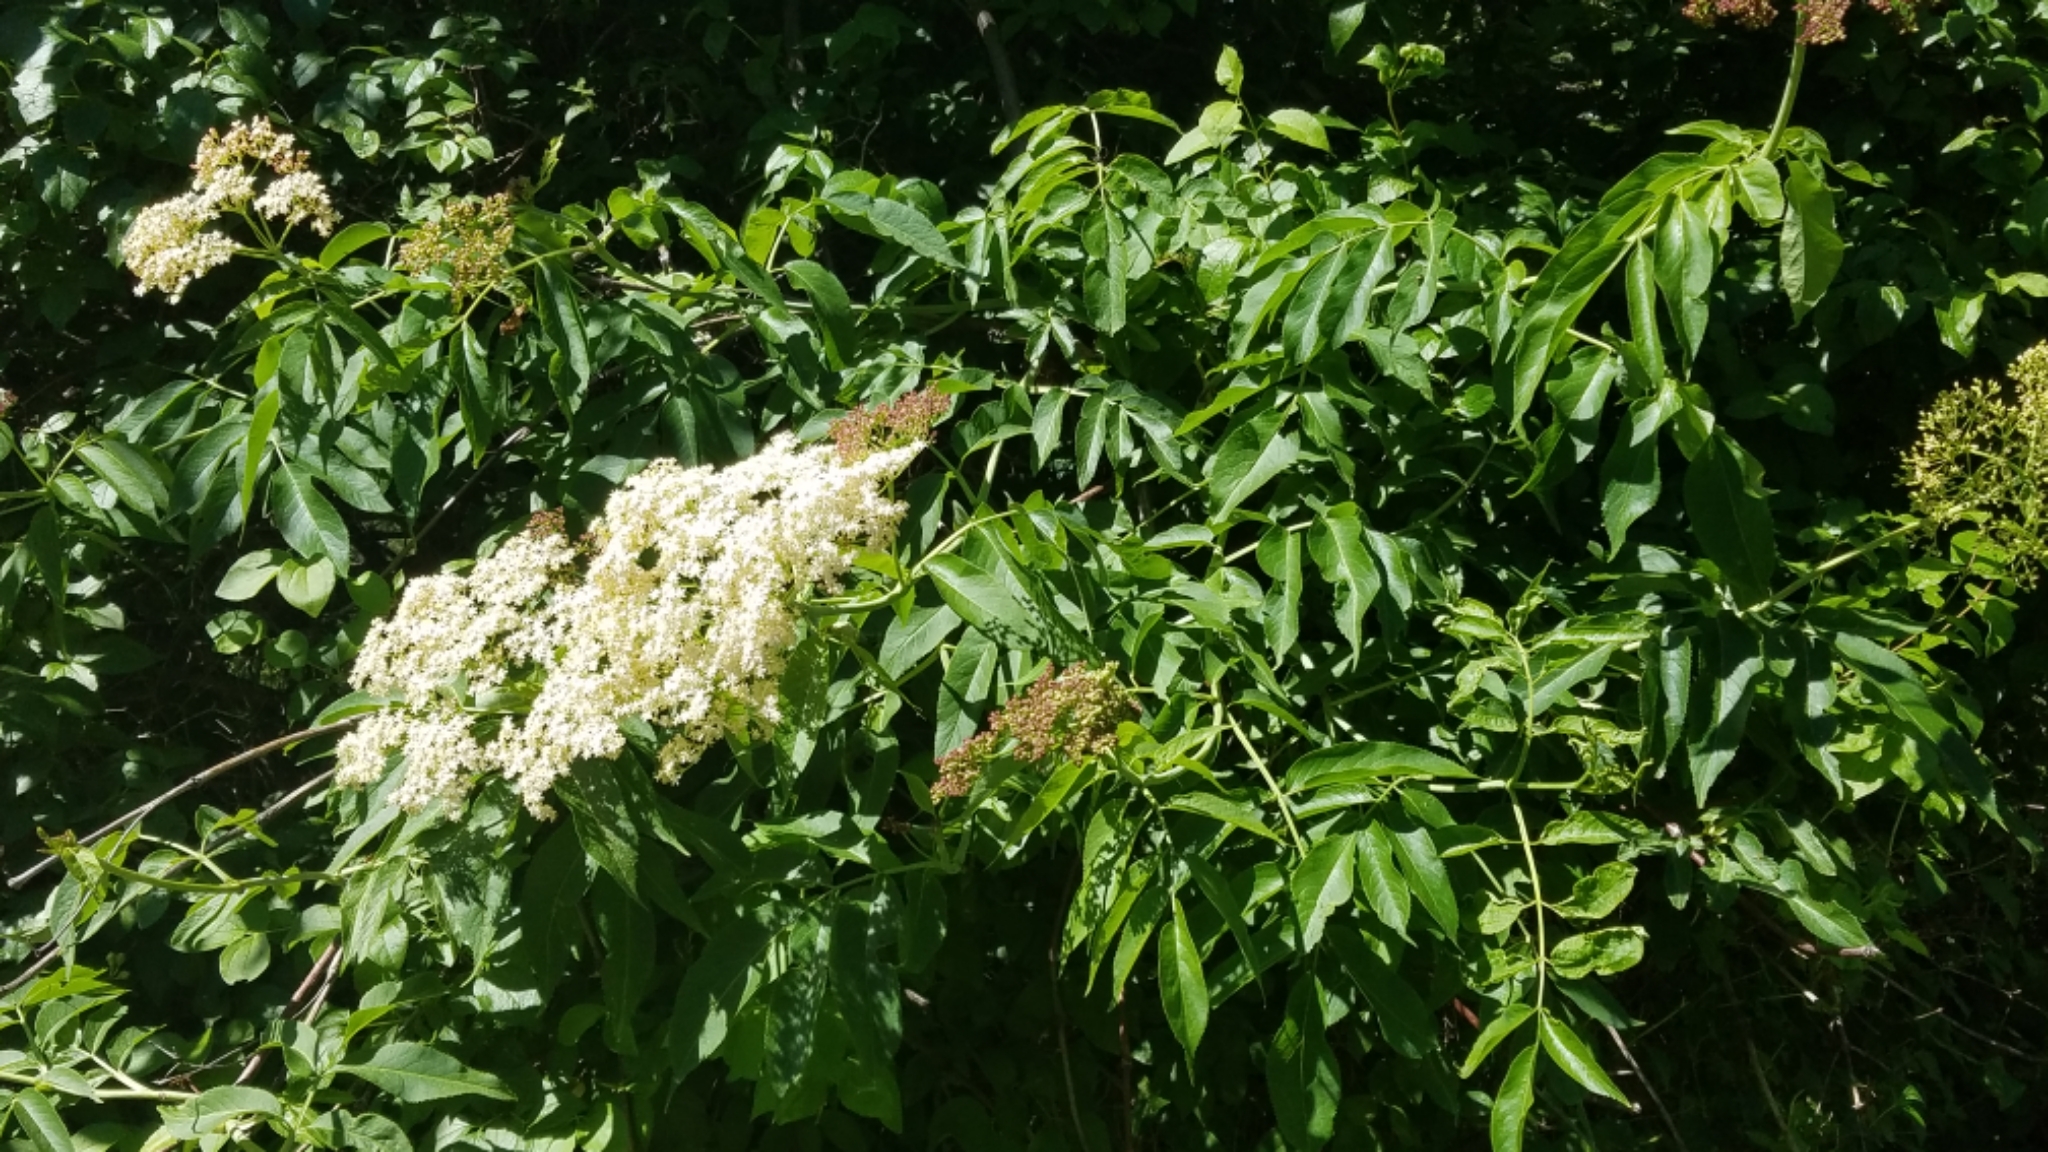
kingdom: Plantae
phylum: Tracheophyta
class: Magnoliopsida
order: Dipsacales
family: Viburnaceae
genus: Sambucus
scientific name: Sambucus cerulea
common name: Blue elder
